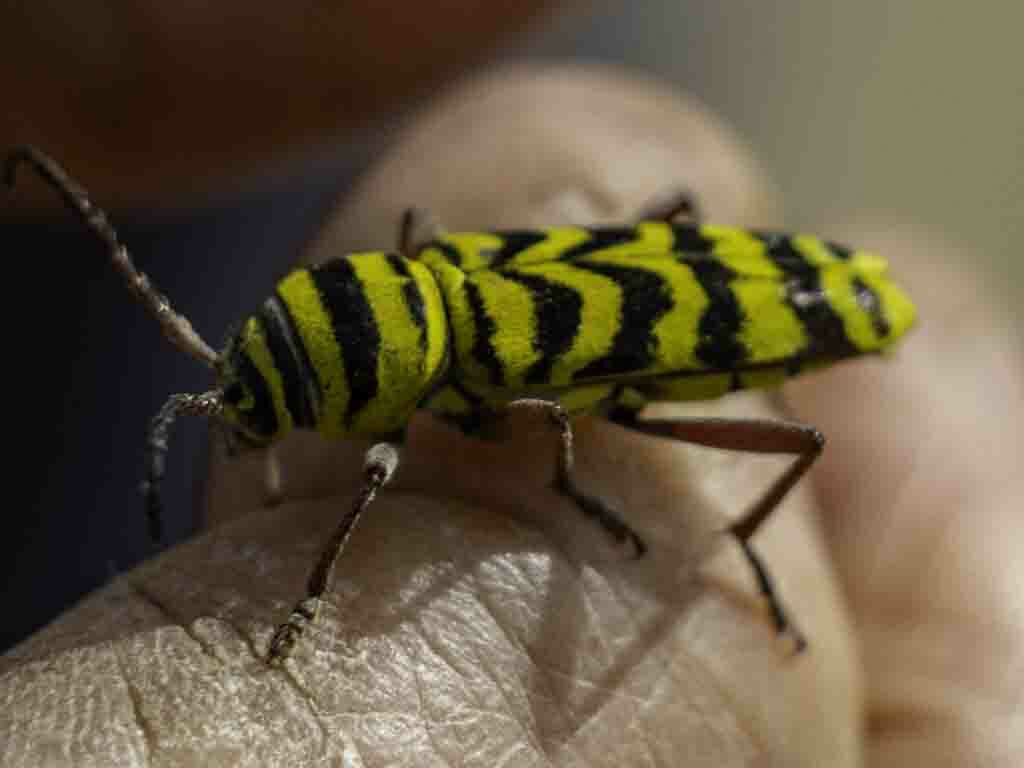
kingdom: Animalia
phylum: Arthropoda
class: Insecta
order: Coleoptera
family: Cerambycidae
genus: Megacyllene
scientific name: Megacyllene angulifera
